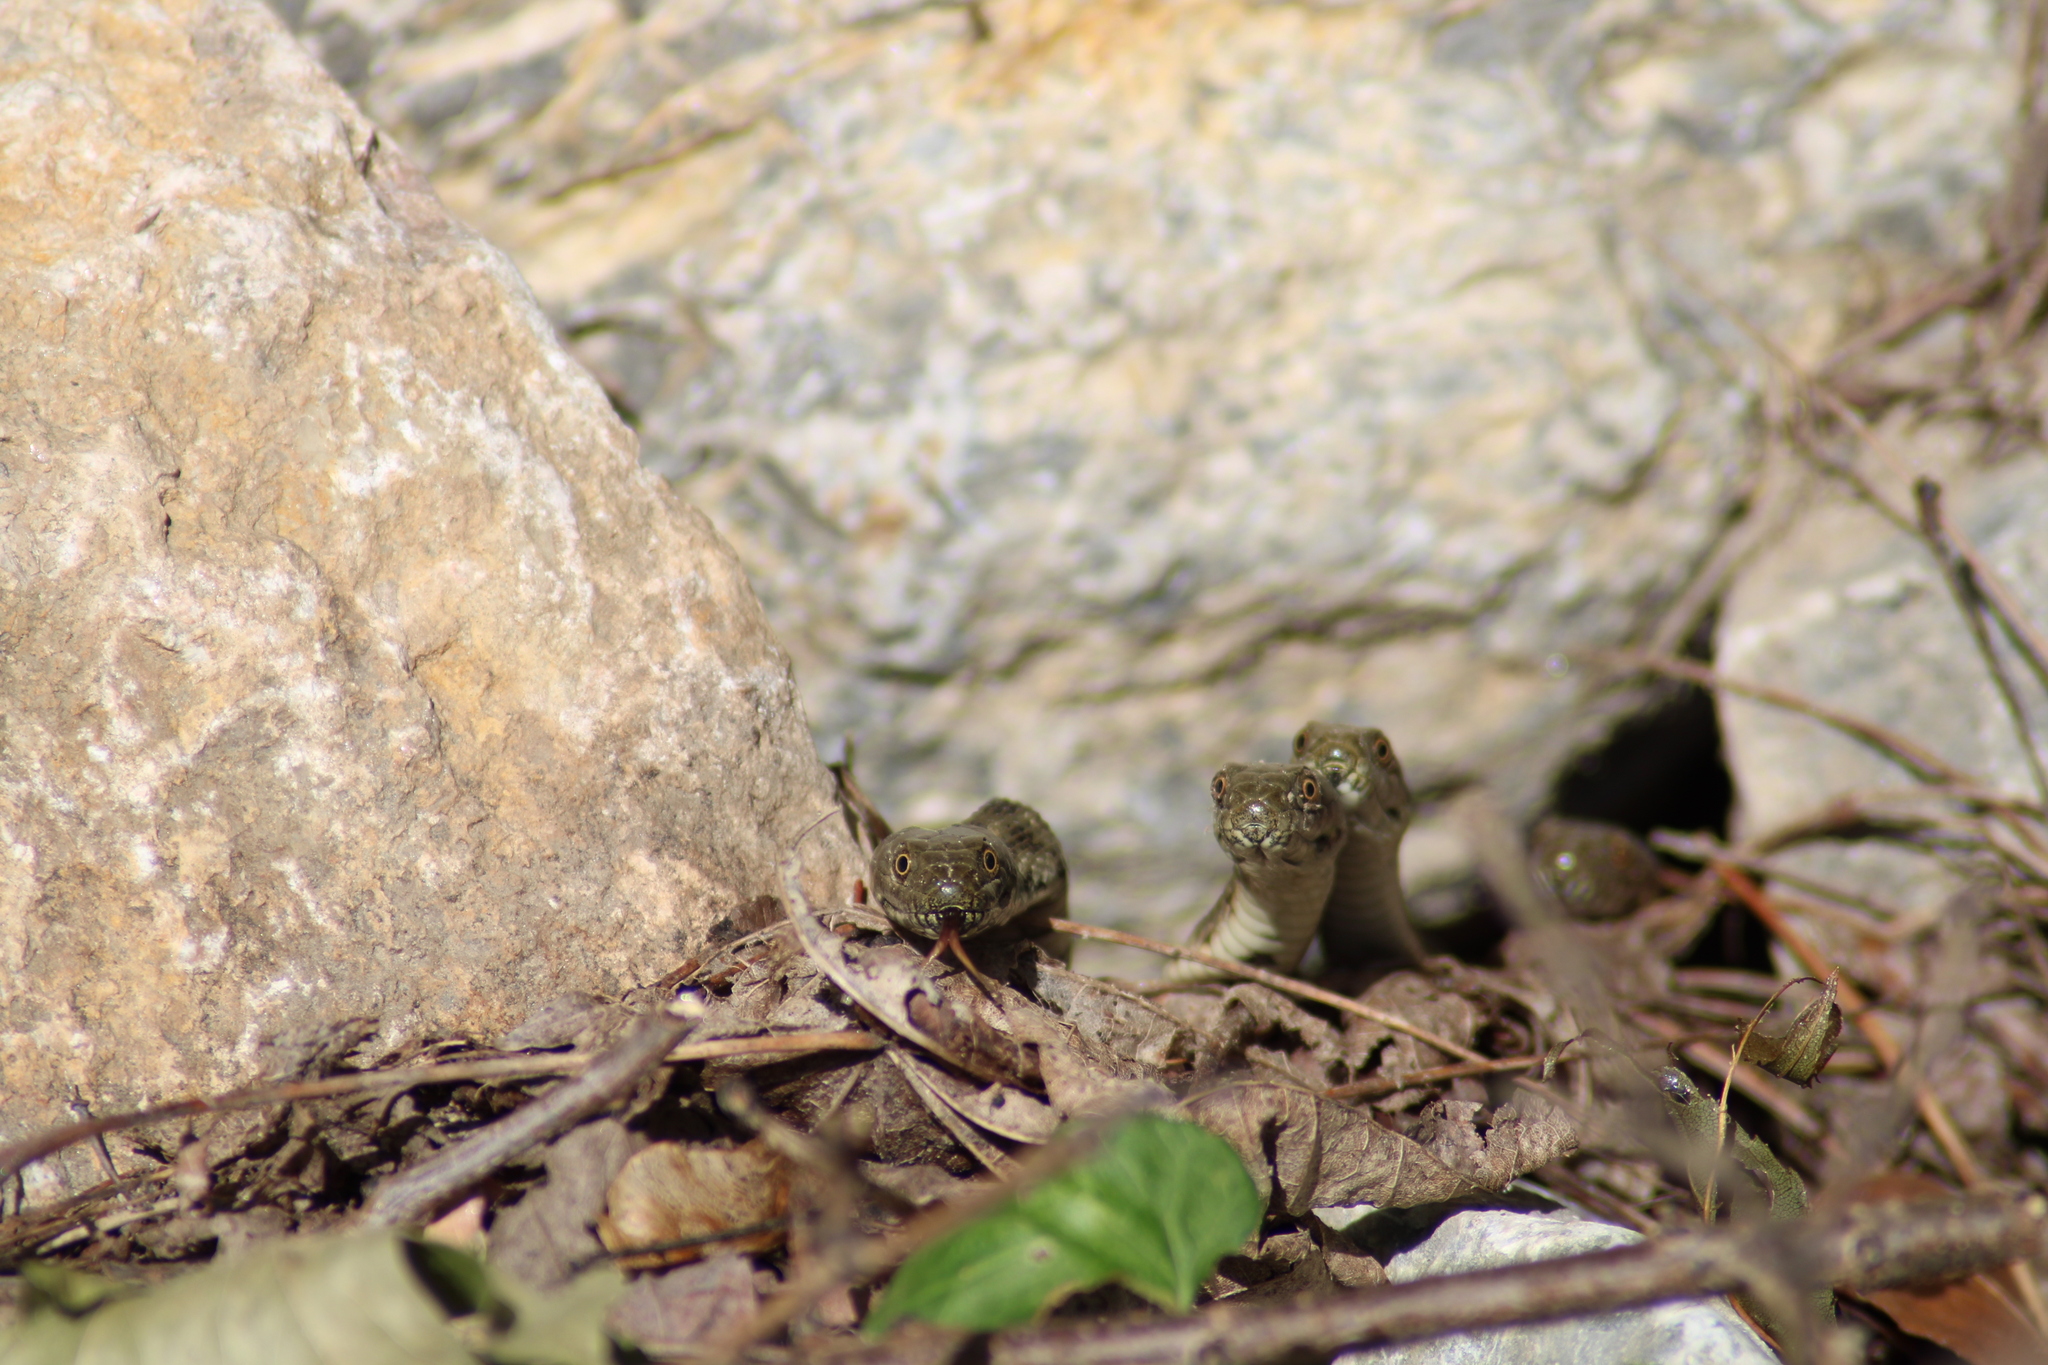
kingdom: Animalia
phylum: Chordata
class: Squamata
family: Colubridae
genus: Natrix
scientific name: Natrix tessellata
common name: Dice snake
